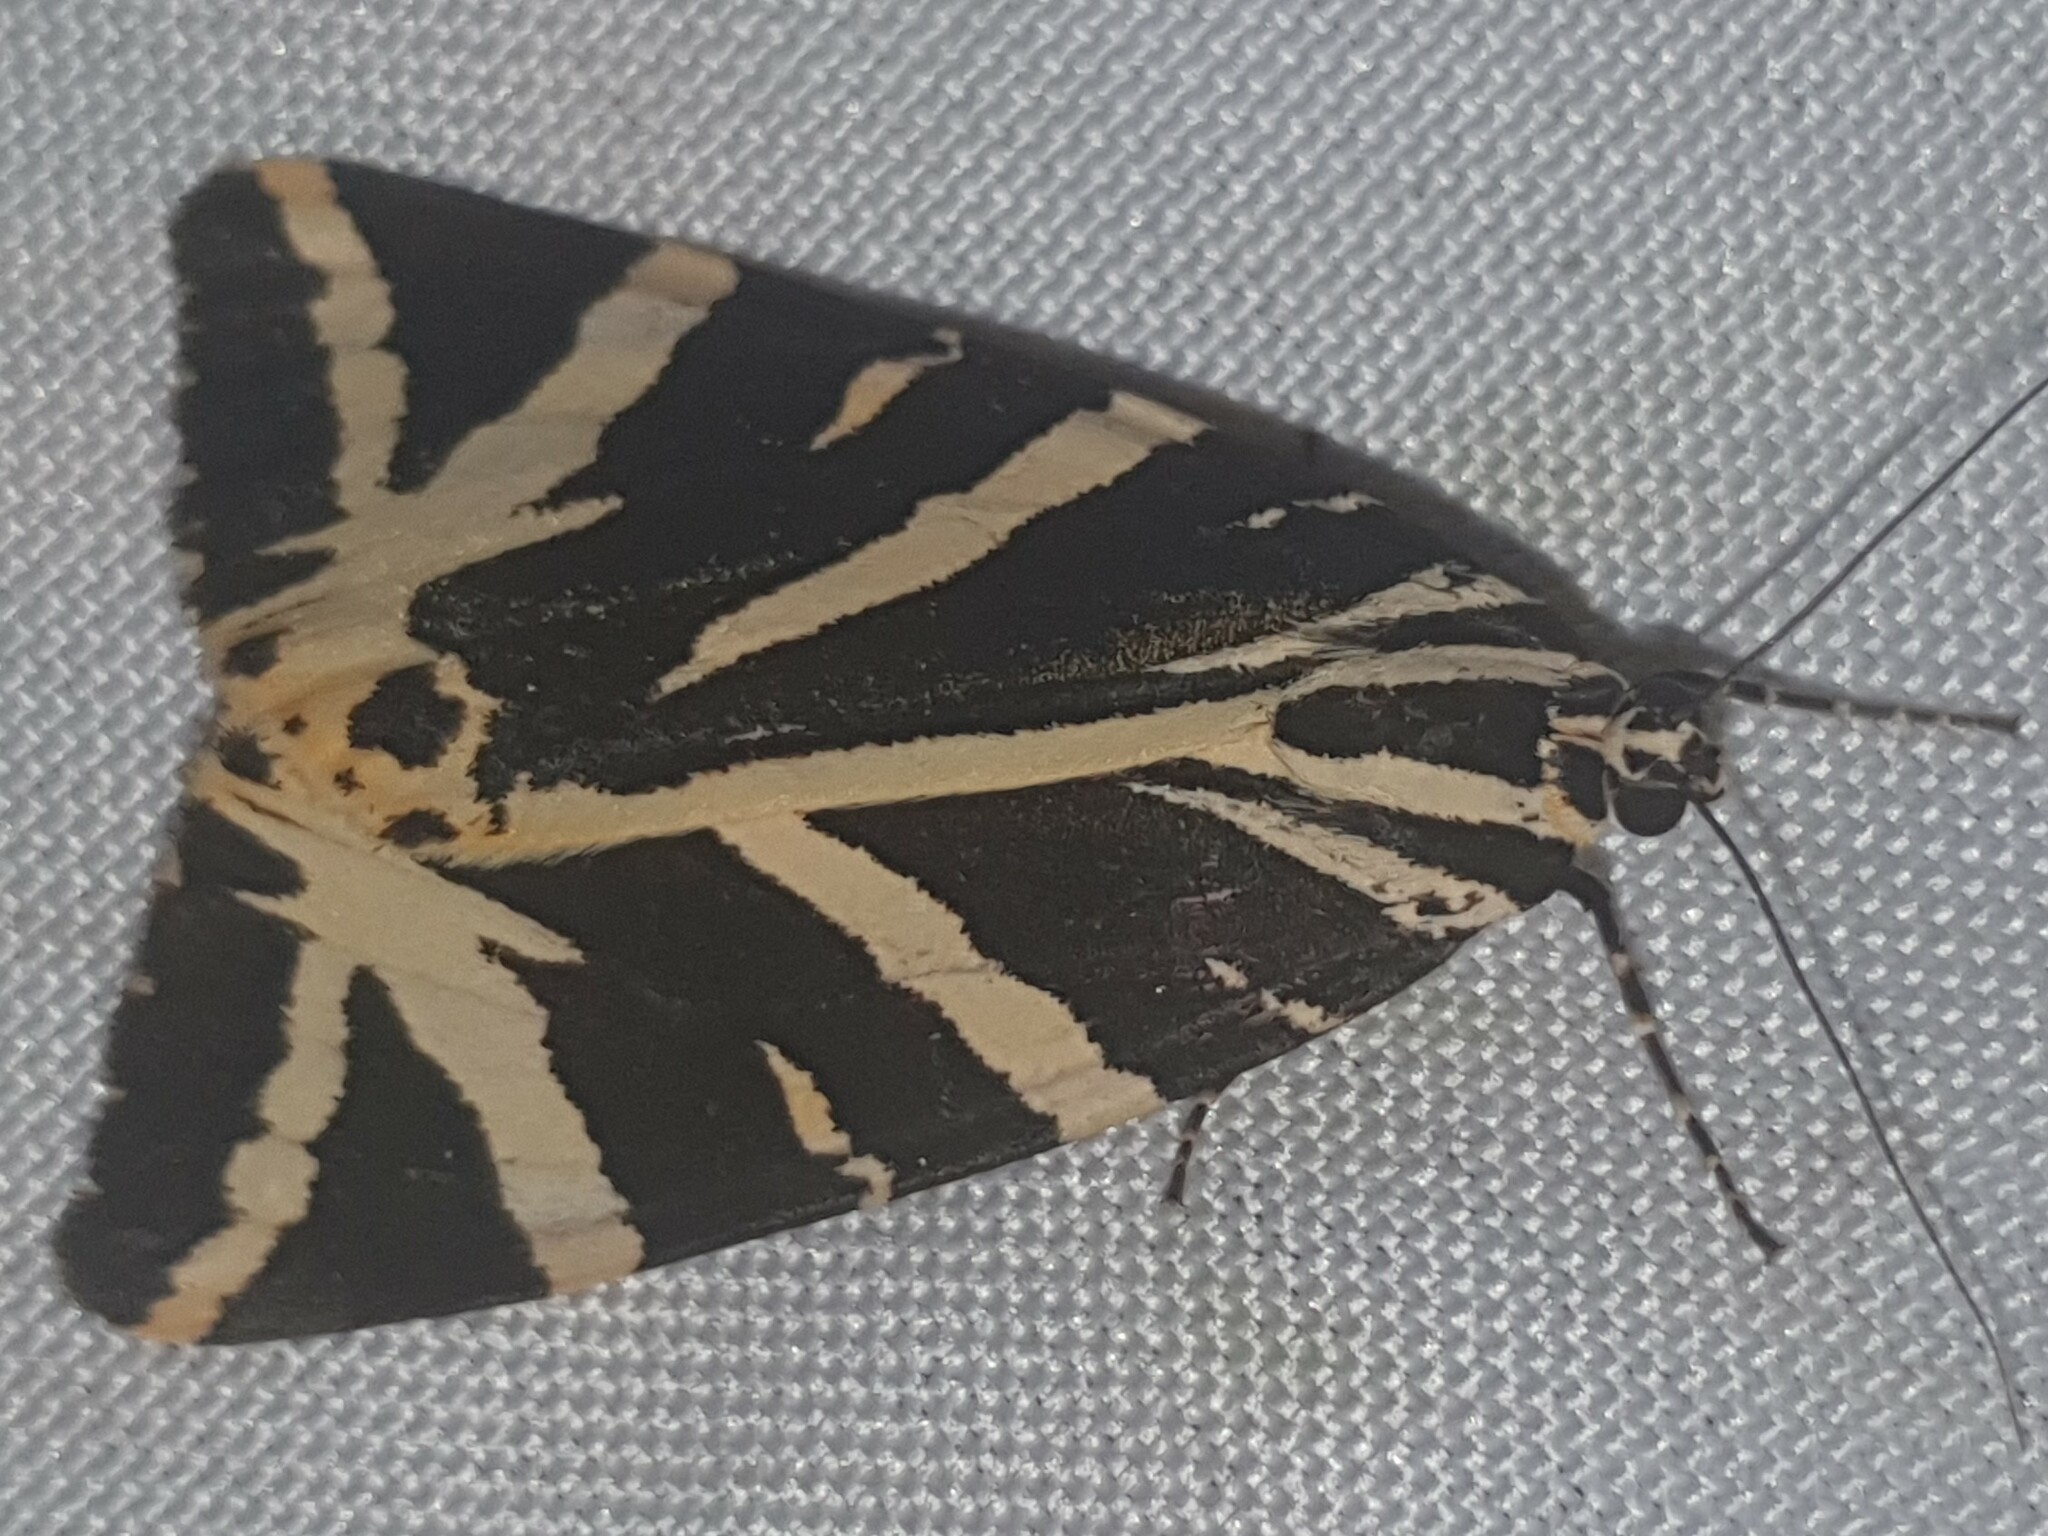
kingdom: Animalia
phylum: Arthropoda
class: Insecta
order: Lepidoptera
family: Erebidae
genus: Euplagia
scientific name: Euplagia quadripunctaria
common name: Jersey tiger
